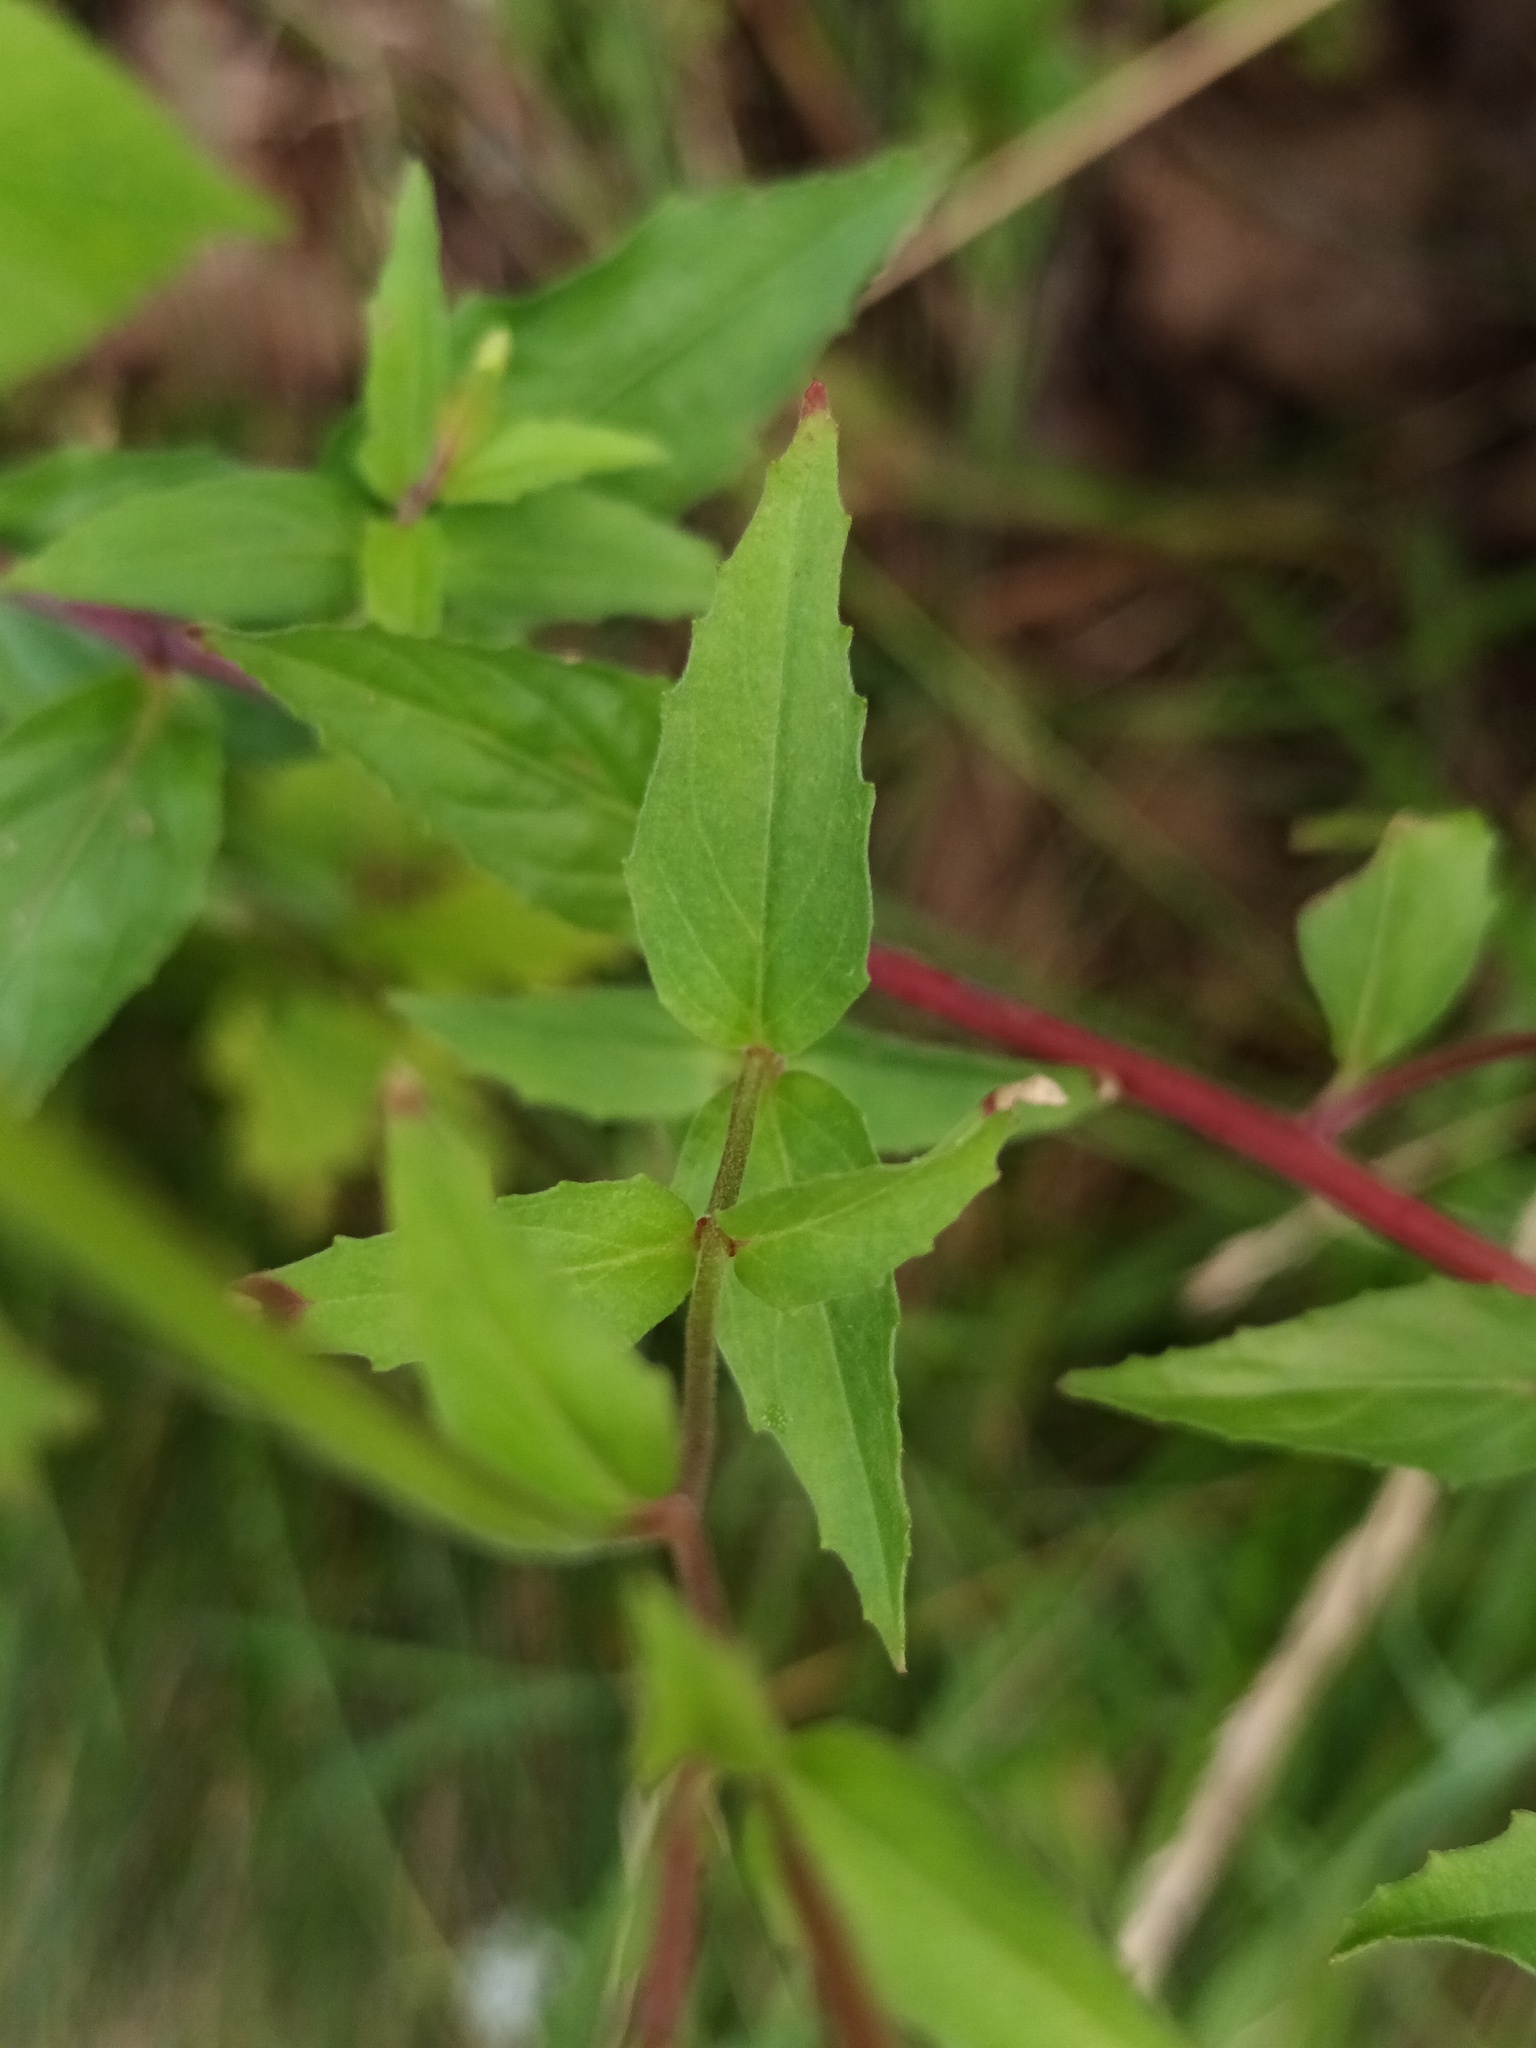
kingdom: Plantae
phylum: Tracheophyta
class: Magnoliopsida
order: Myrtales
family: Onagraceae
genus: Epilobium
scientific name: Epilobium montanum
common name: Broad-leaved willowherb
